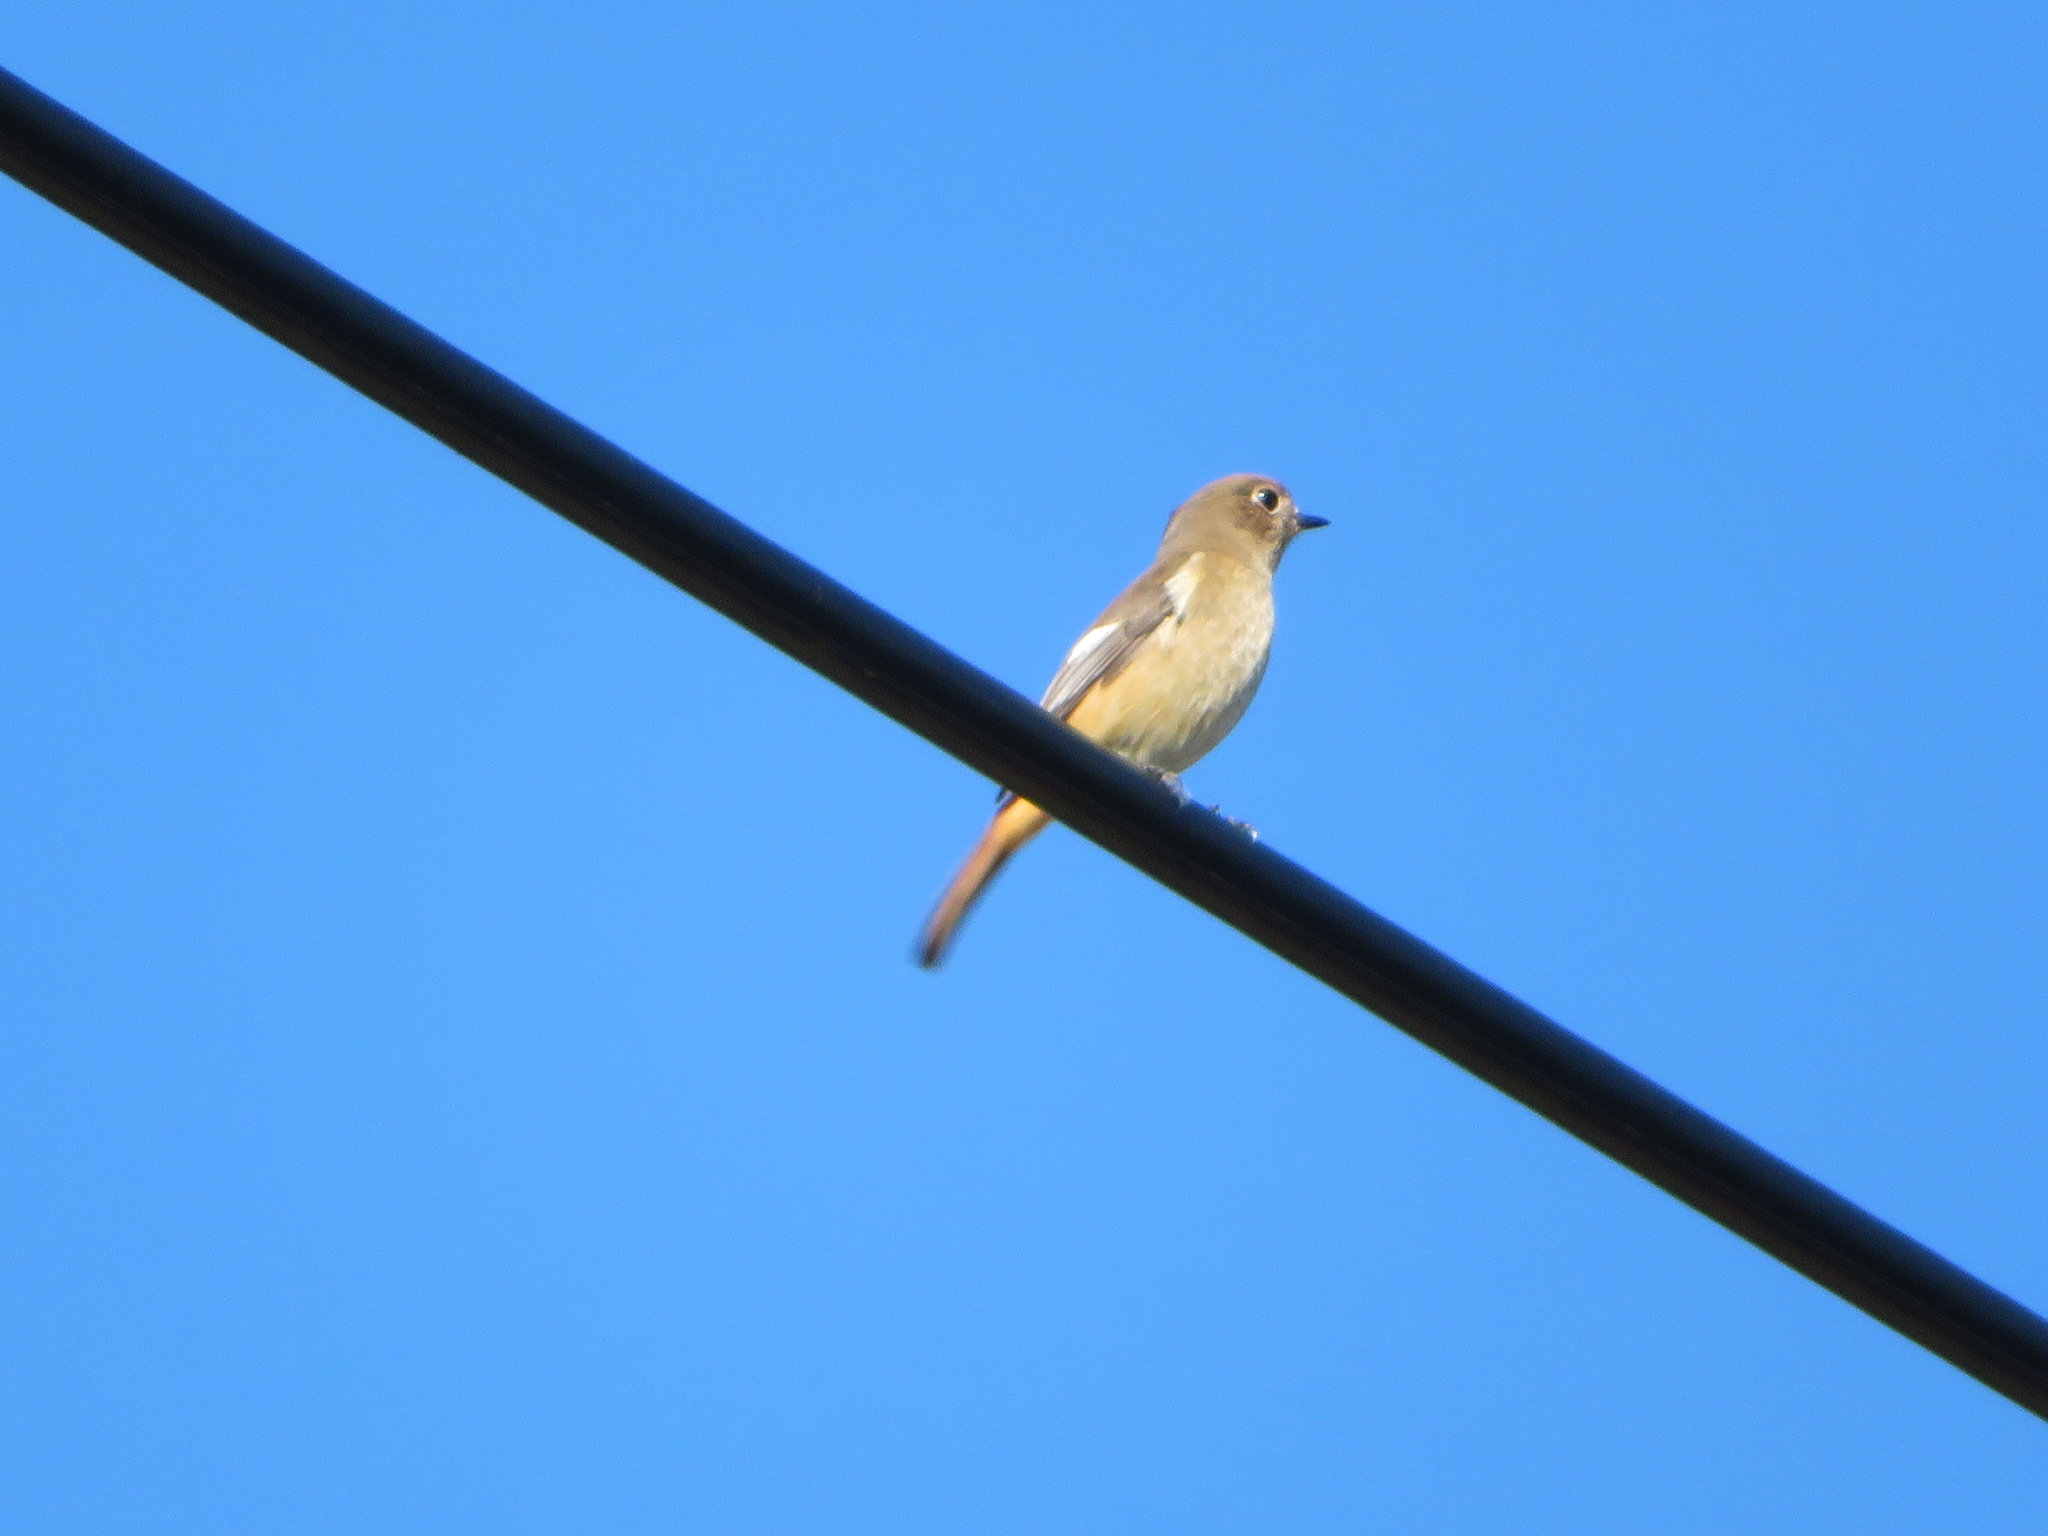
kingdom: Animalia
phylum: Chordata
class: Aves
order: Passeriformes
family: Muscicapidae
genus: Phoenicurus
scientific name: Phoenicurus auroreus
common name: Daurian redstart
